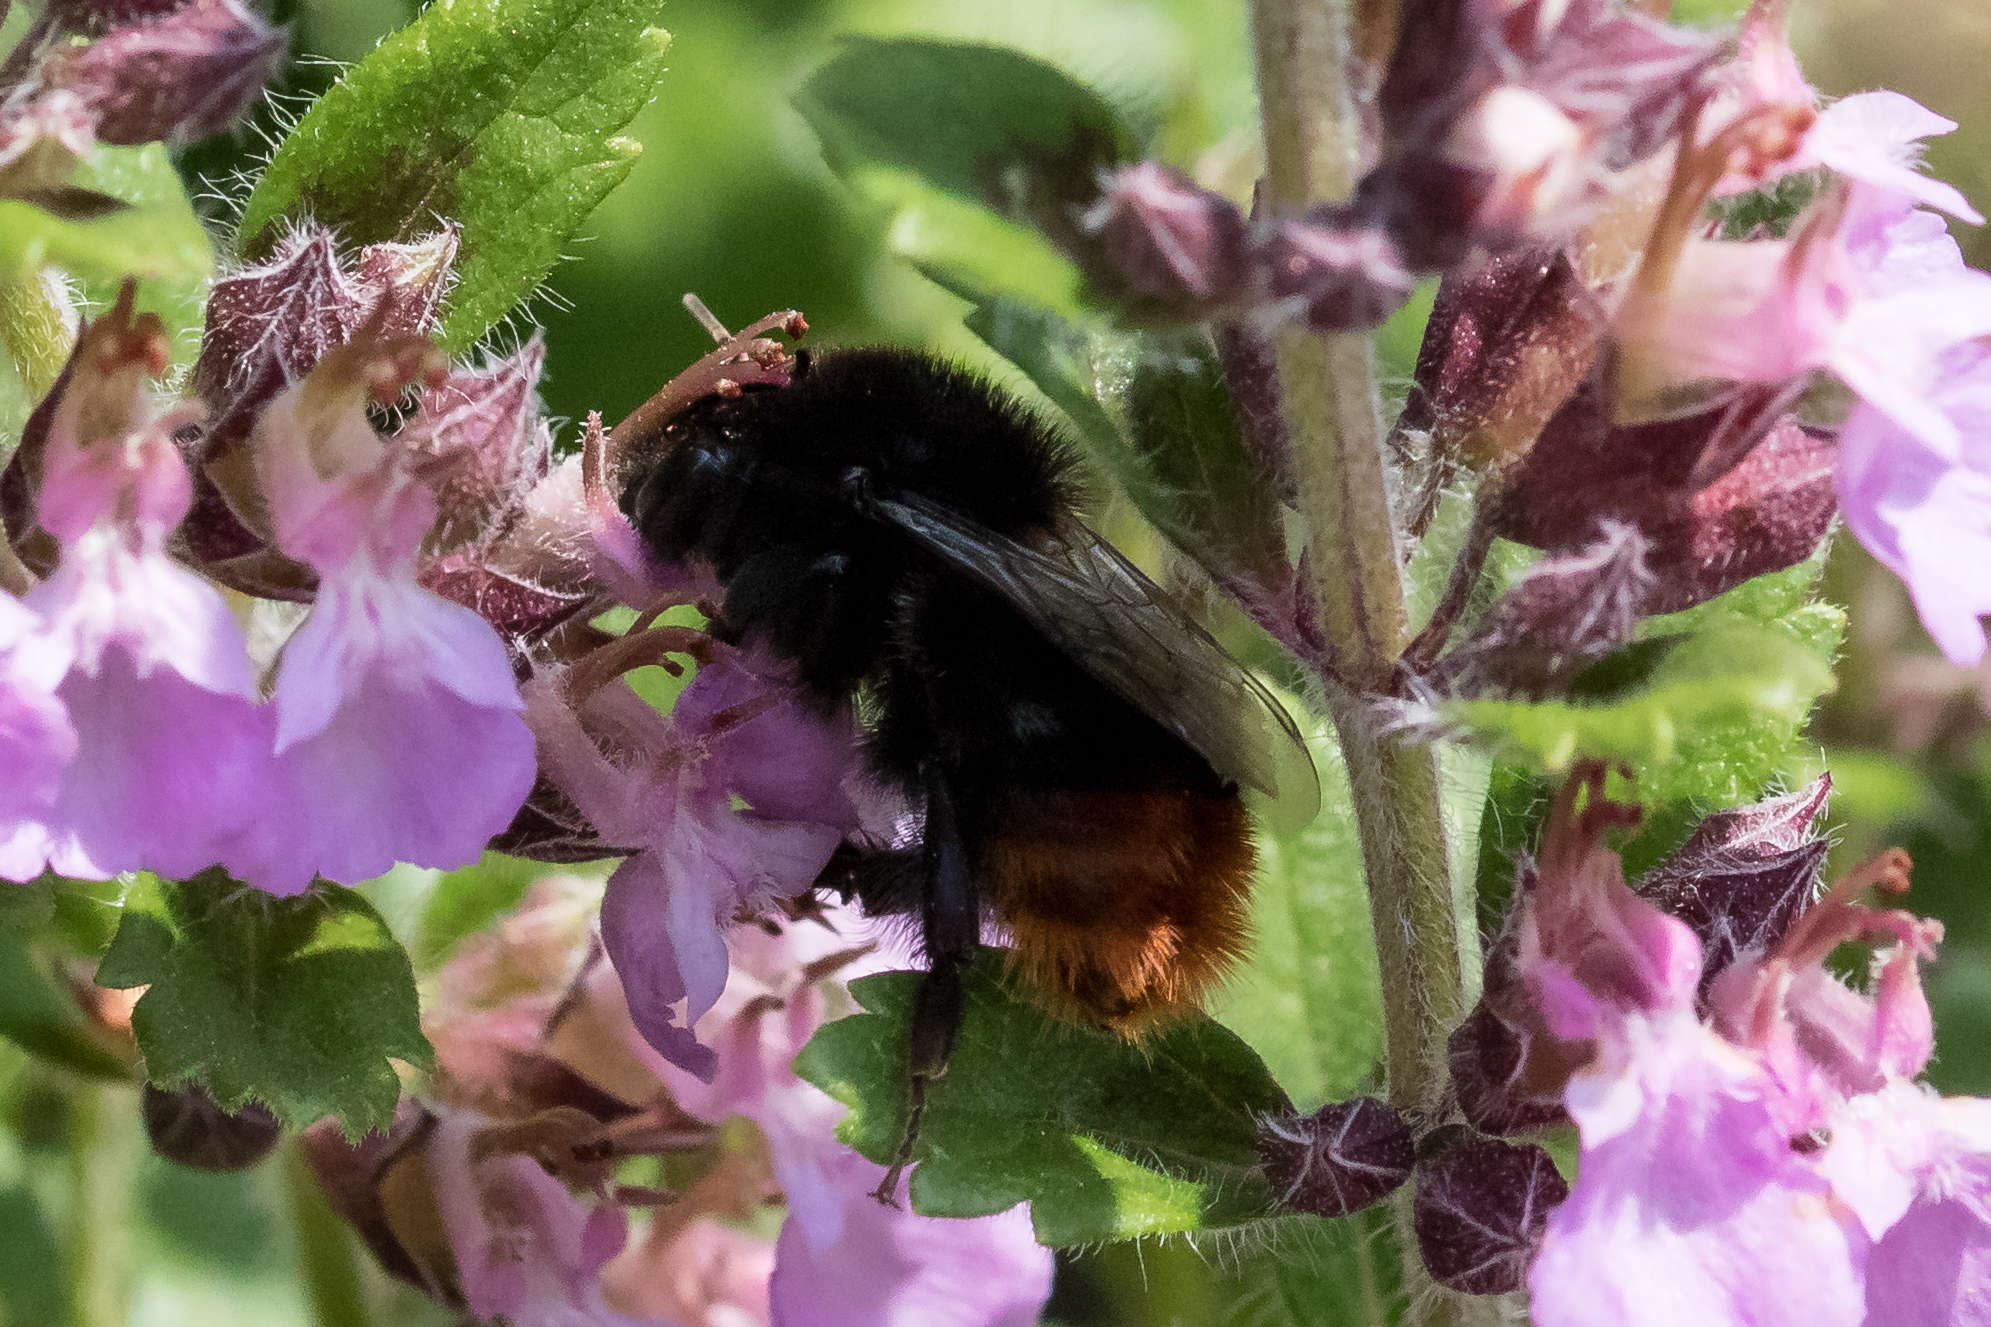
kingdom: Animalia
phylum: Arthropoda
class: Insecta
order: Hymenoptera
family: Apidae
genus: Bombus
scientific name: Bombus lapidarius
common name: Large red-tailed humble-bee
